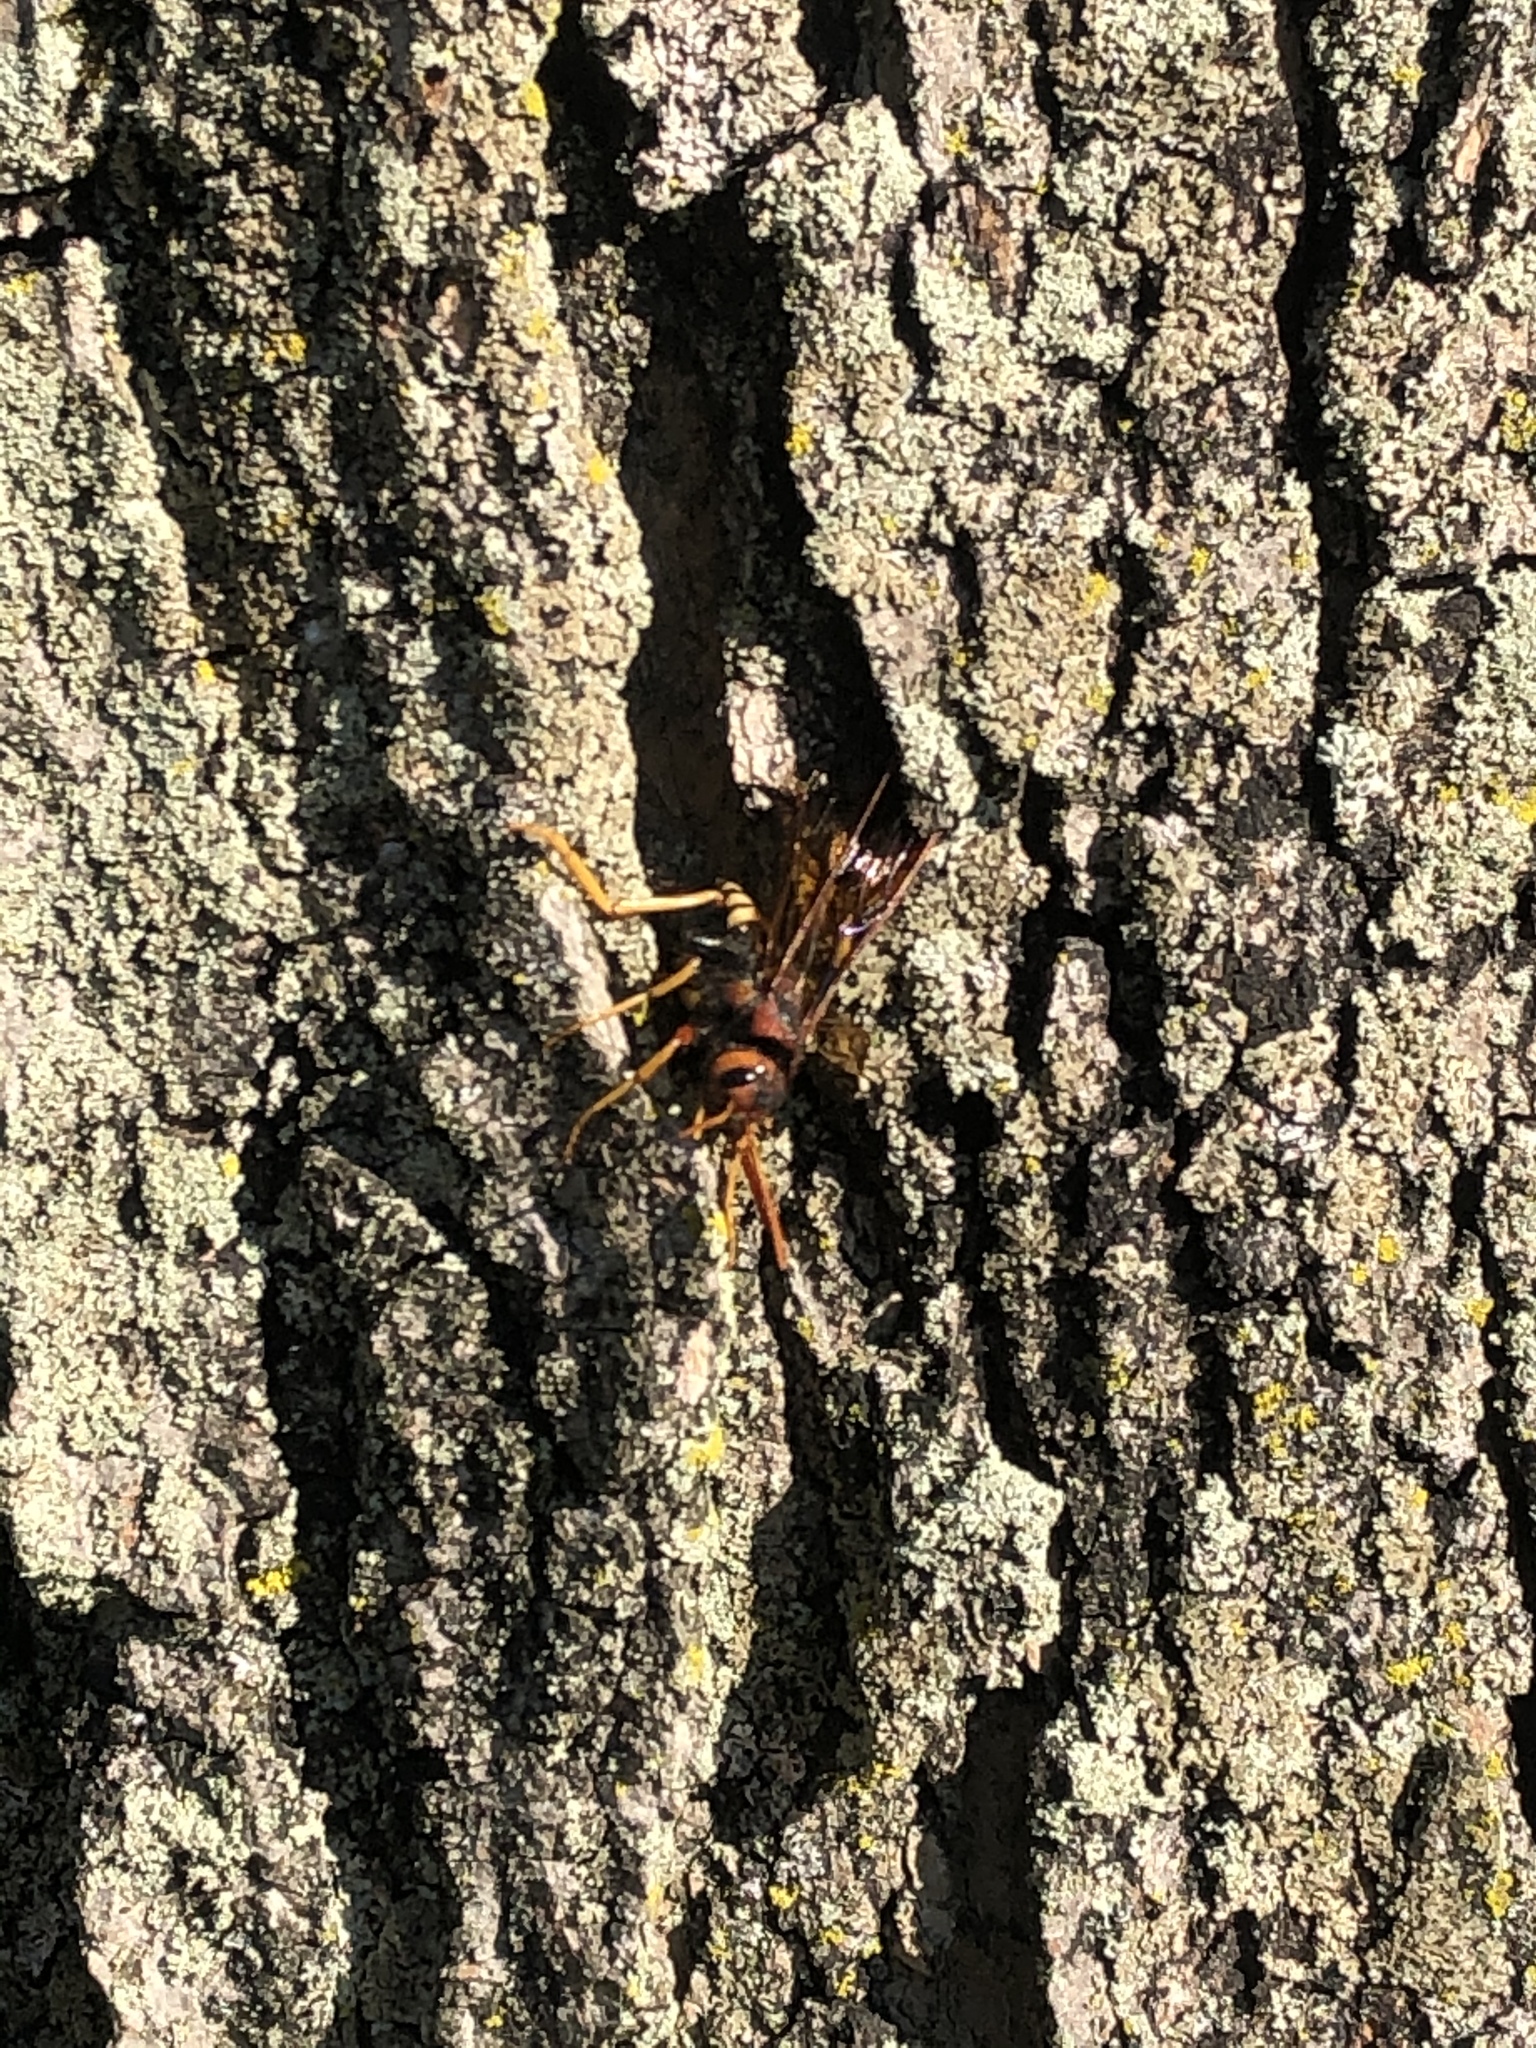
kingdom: Animalia
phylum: Arthropoda
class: Insecta
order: Hymenoptera
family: Siricidae
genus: Tremex
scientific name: Tremex columba
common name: Wasp
